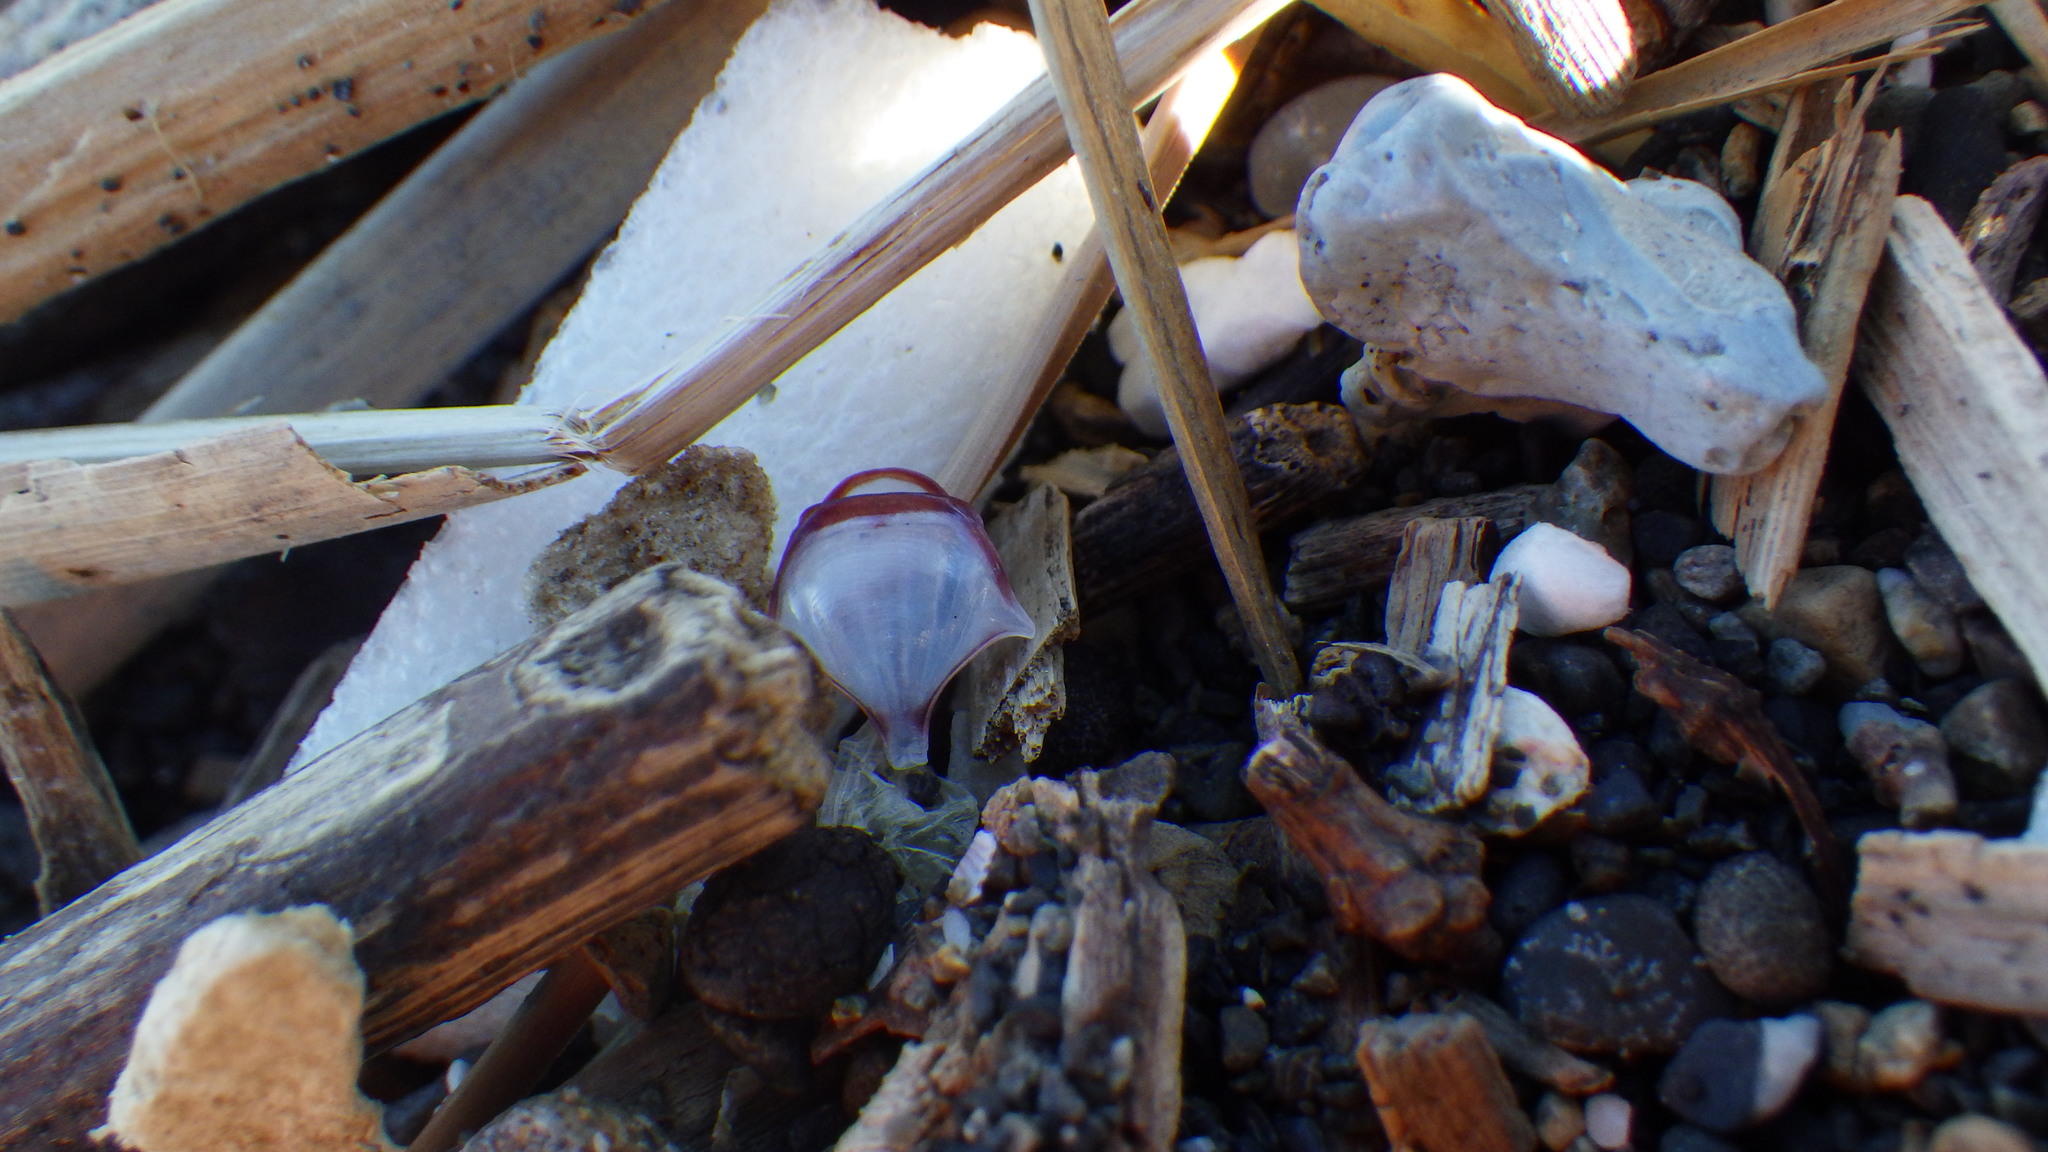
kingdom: Animalia
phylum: Mollusca
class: Gastropoda
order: Pteropoda
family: Cavoliniidae
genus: Diacria
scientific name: Diacria major
